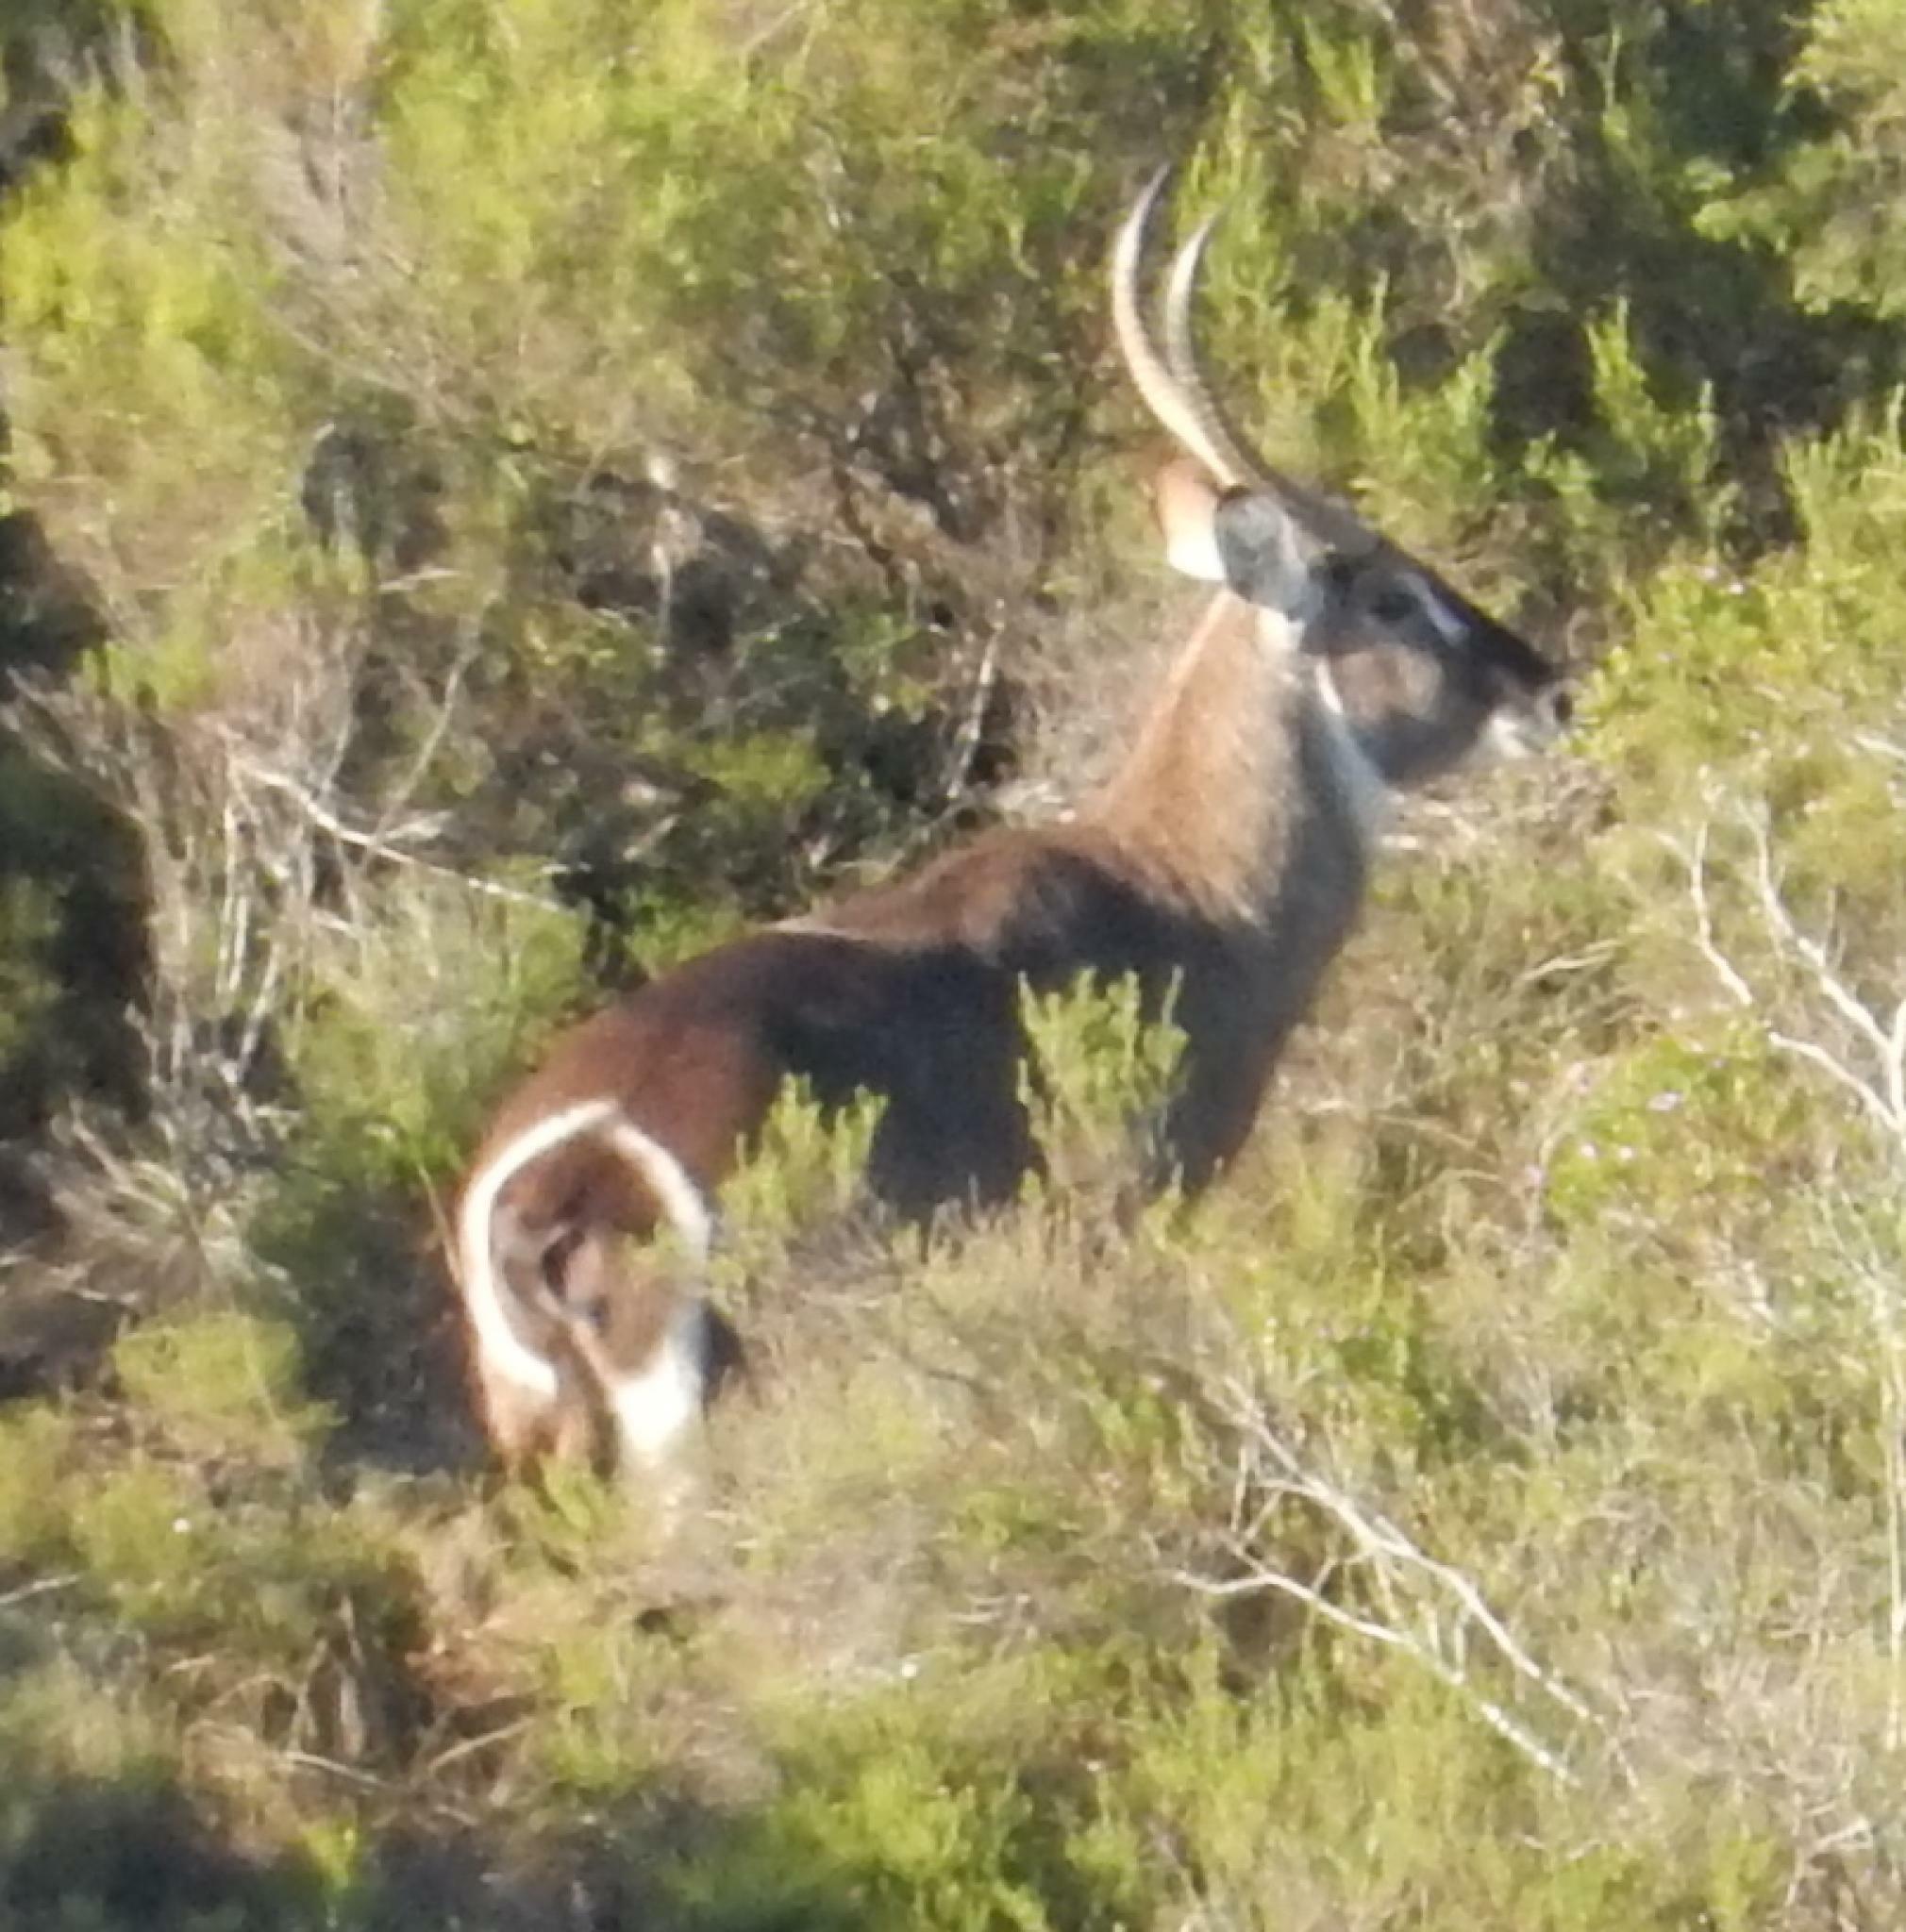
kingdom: Animalia
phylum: Chordata
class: Mammalia
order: Artiodactyla
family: Bovidae
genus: Kobus
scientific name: Kobus ellipsiprymnus
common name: Waterbuck
